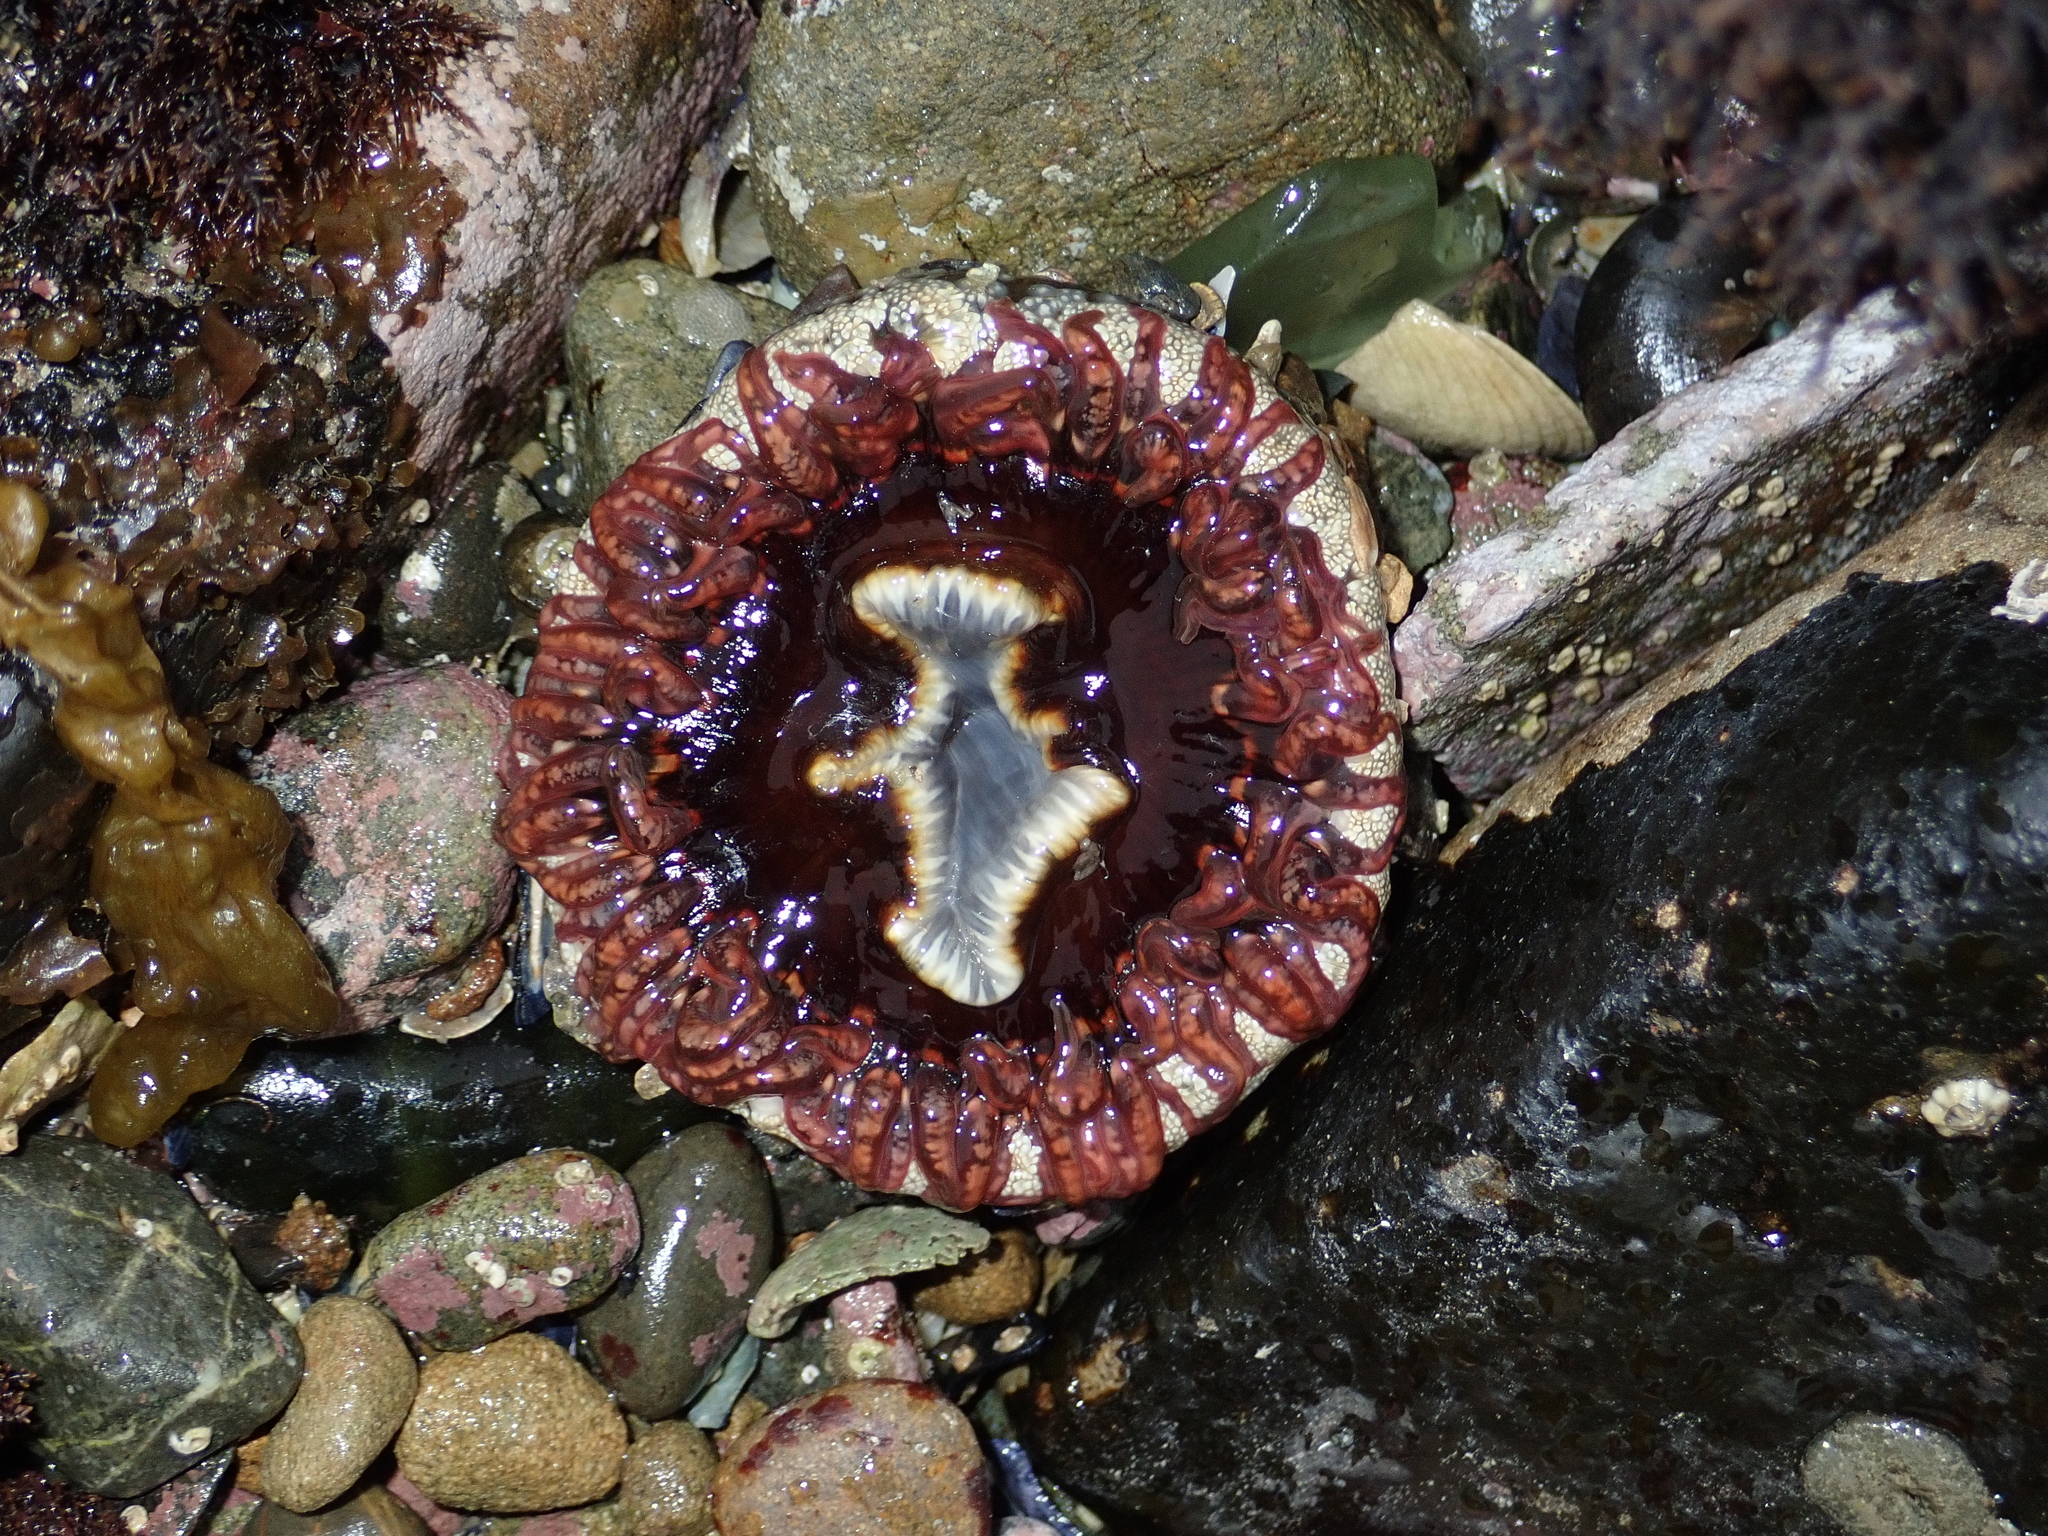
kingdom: Animalia
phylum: Cnidaria
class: Anthozoa
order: Actiniaria
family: Actiniidae
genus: Oulactis
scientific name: Oulactis muscosa
